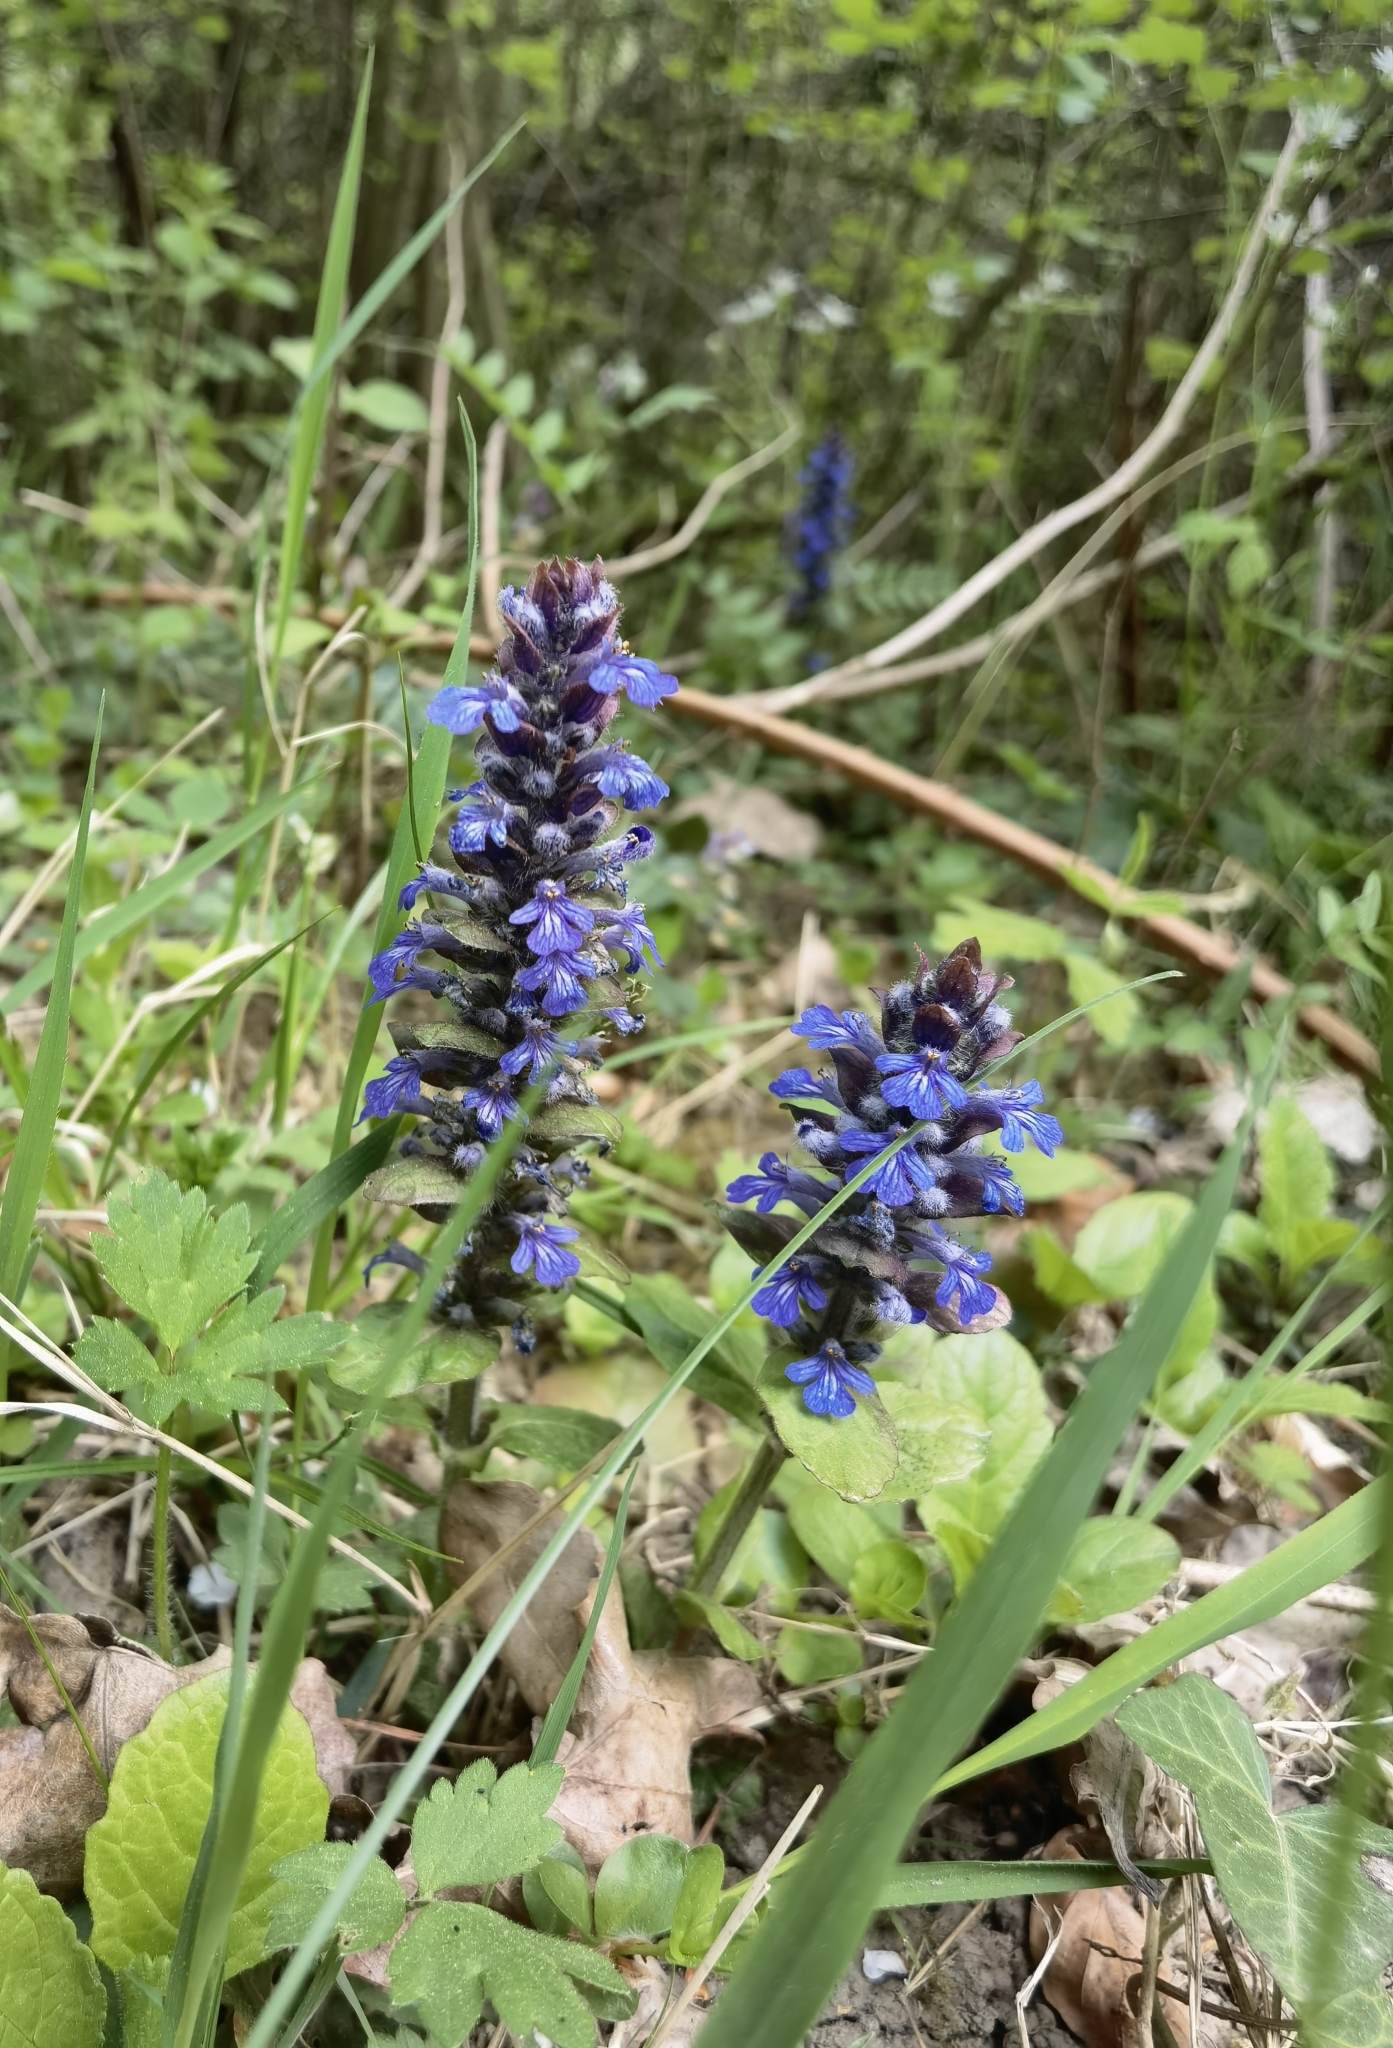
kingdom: Plantae
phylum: Tracheophyta
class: Magnoliopsida
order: Lamiales
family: Lamiaceae
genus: Ajuga
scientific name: Ajuga reptans
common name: Bugle
